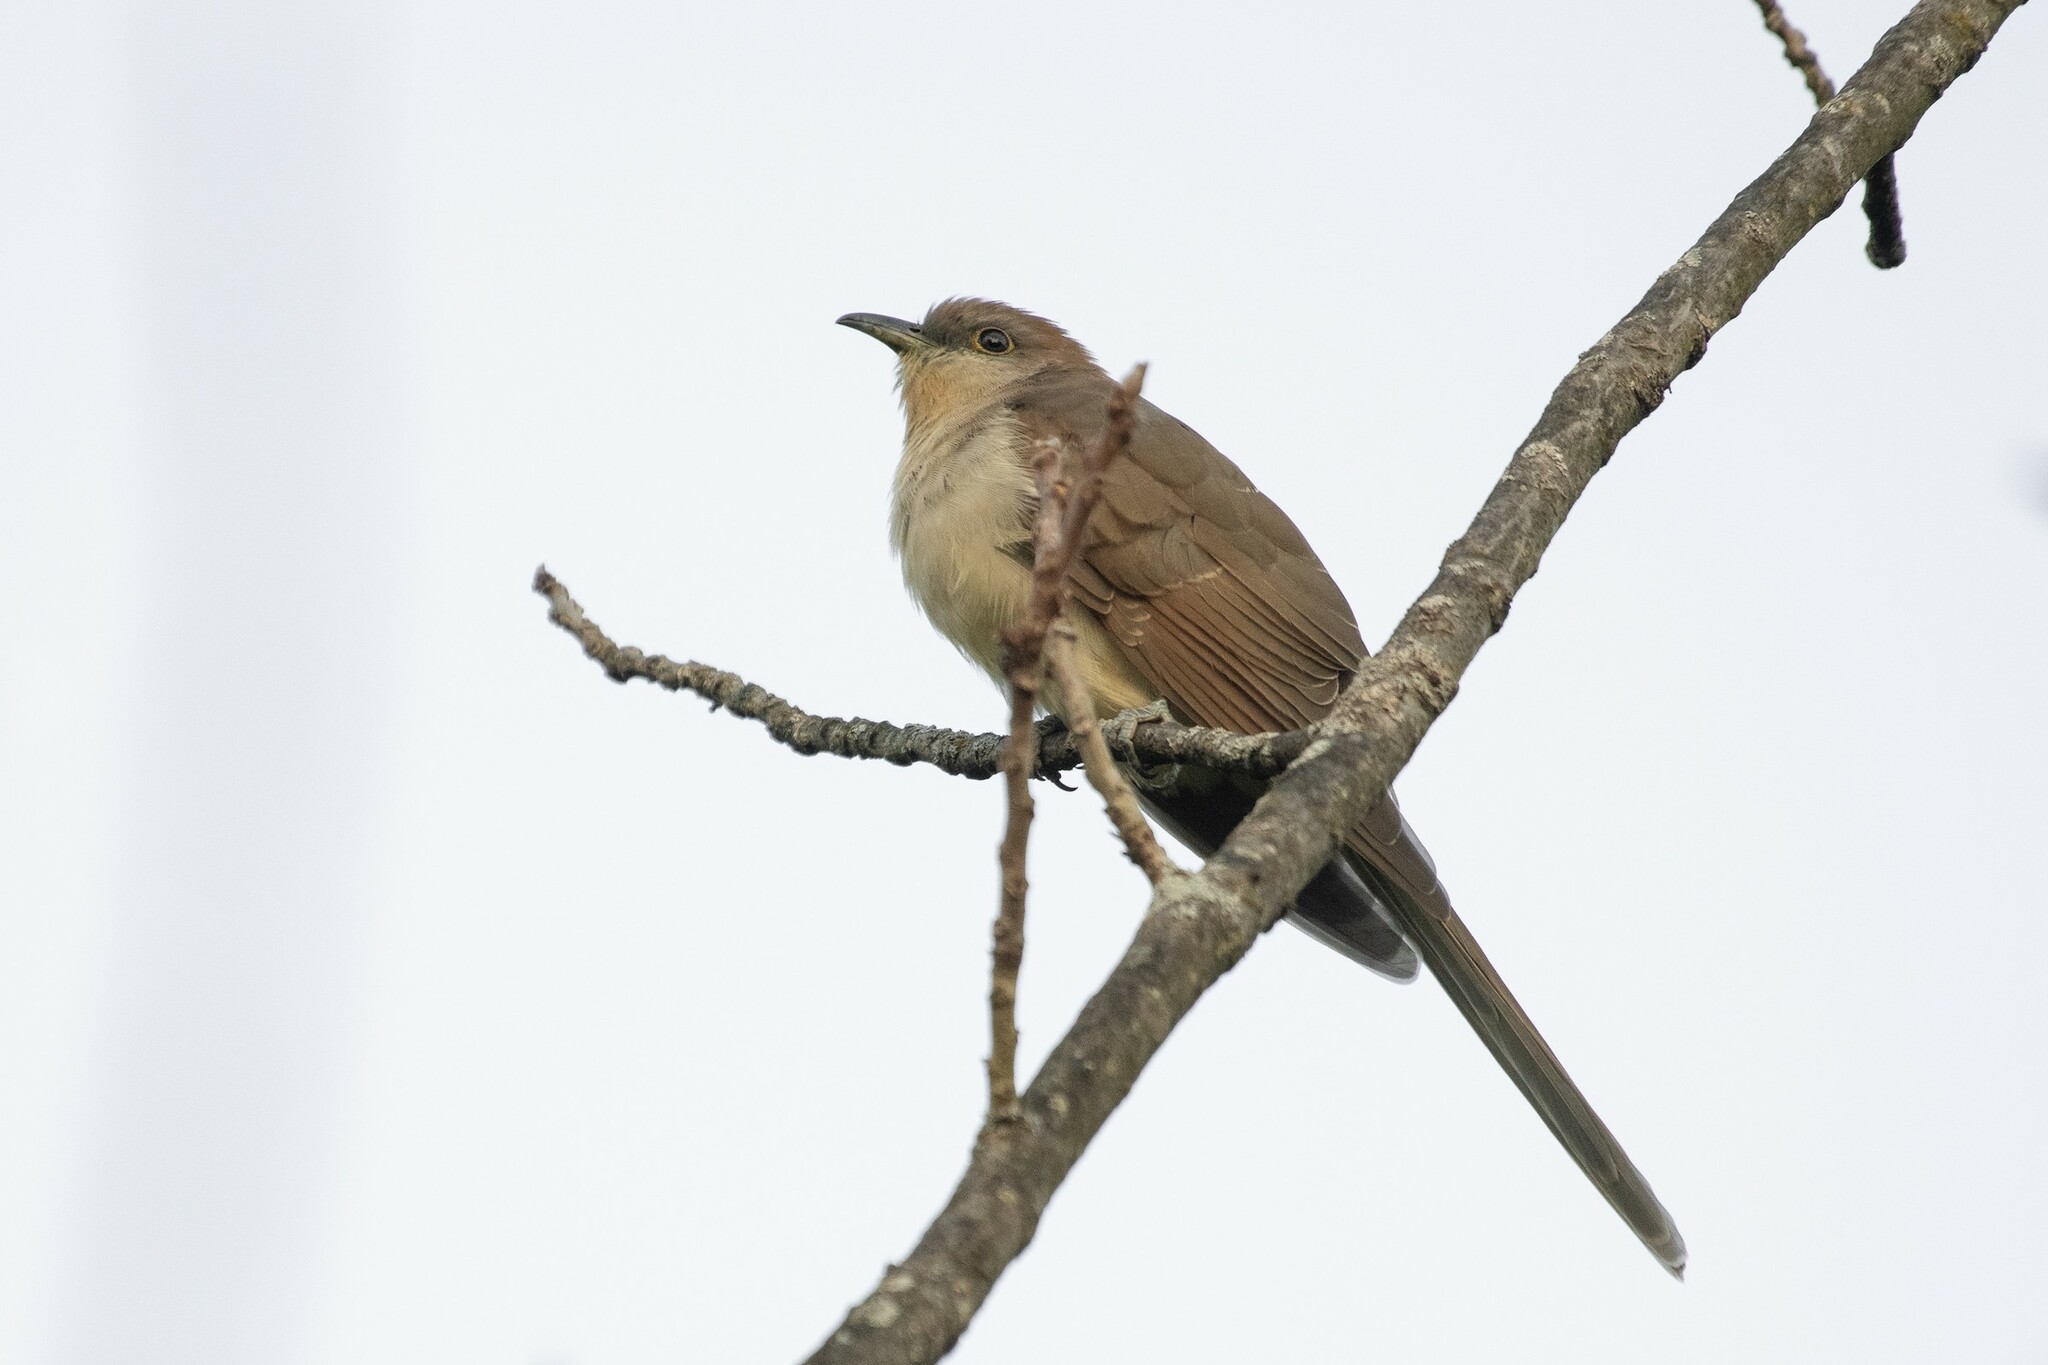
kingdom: Animalia
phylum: Chordata
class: Aves
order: Cuculiformes
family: Cuculidae
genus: Coccyzus
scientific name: Coccyzus erythropthalmus
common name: Black-billed cuckoo
